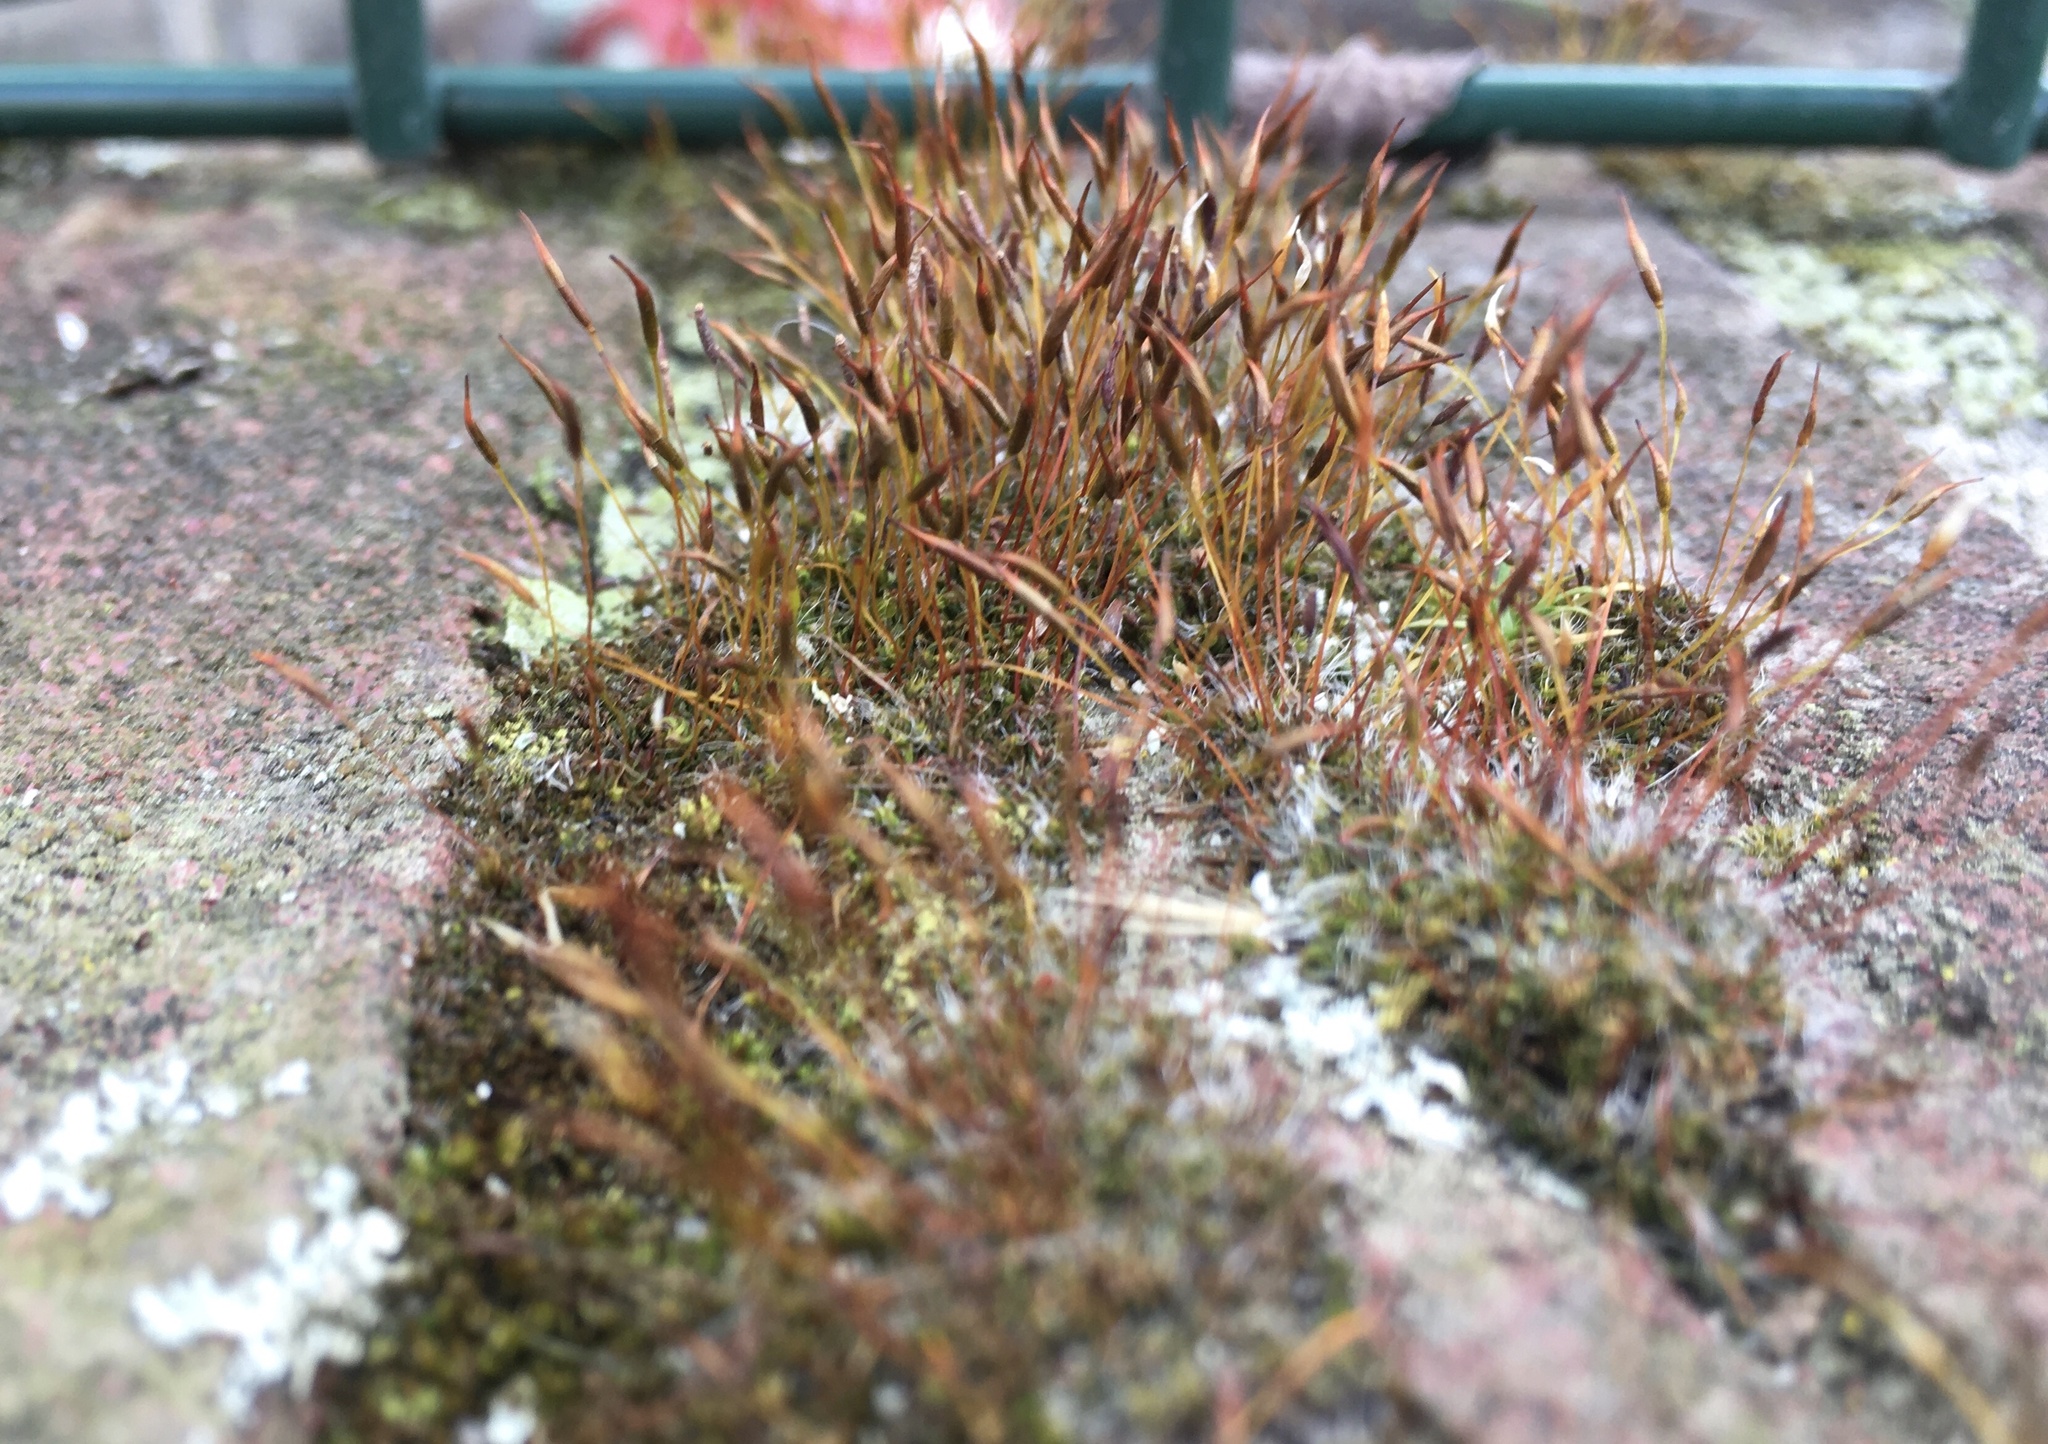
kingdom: Plantae
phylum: Bryophyta
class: Bryopsida
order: Pottiales
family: Pottiaceae
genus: Tortula
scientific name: Tortula muralis
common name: Wall screw-moss
